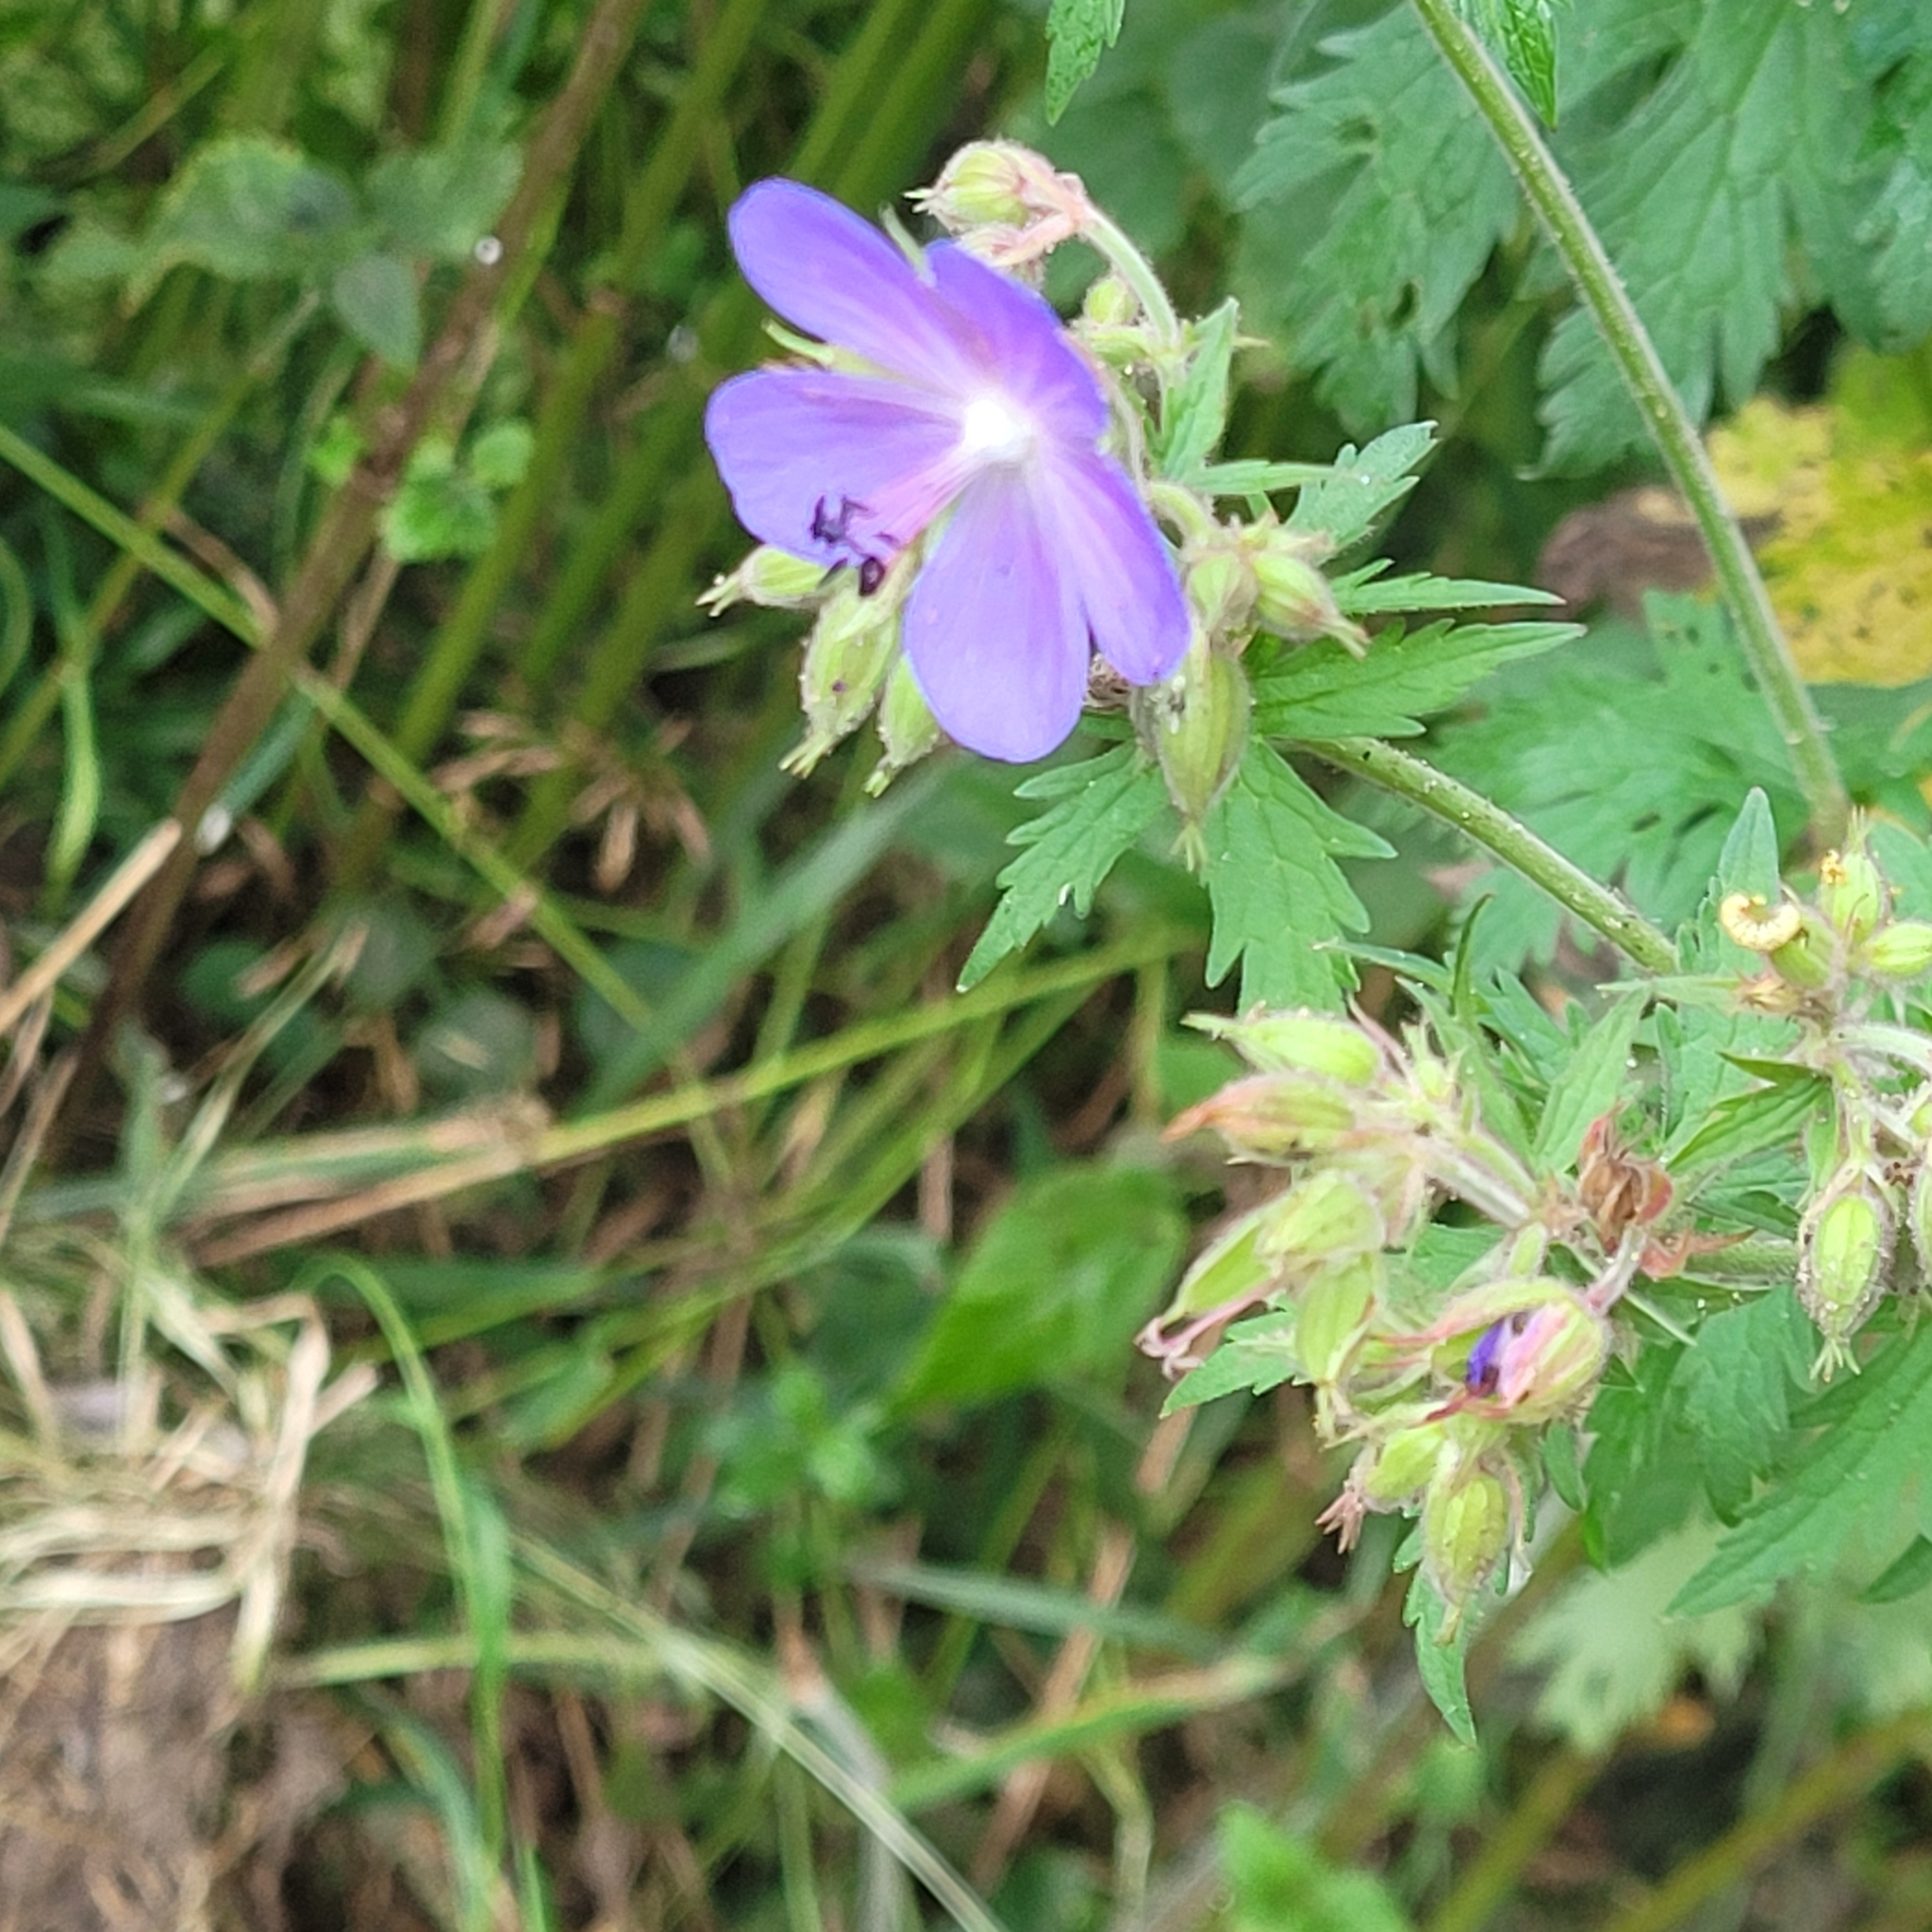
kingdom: Plantae
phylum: Tracheophyta
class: Magnoliopsida
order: Geraniales
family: Geraniaceae
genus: Geranium
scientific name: Geranium pratense
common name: Meadow crane's-bill
